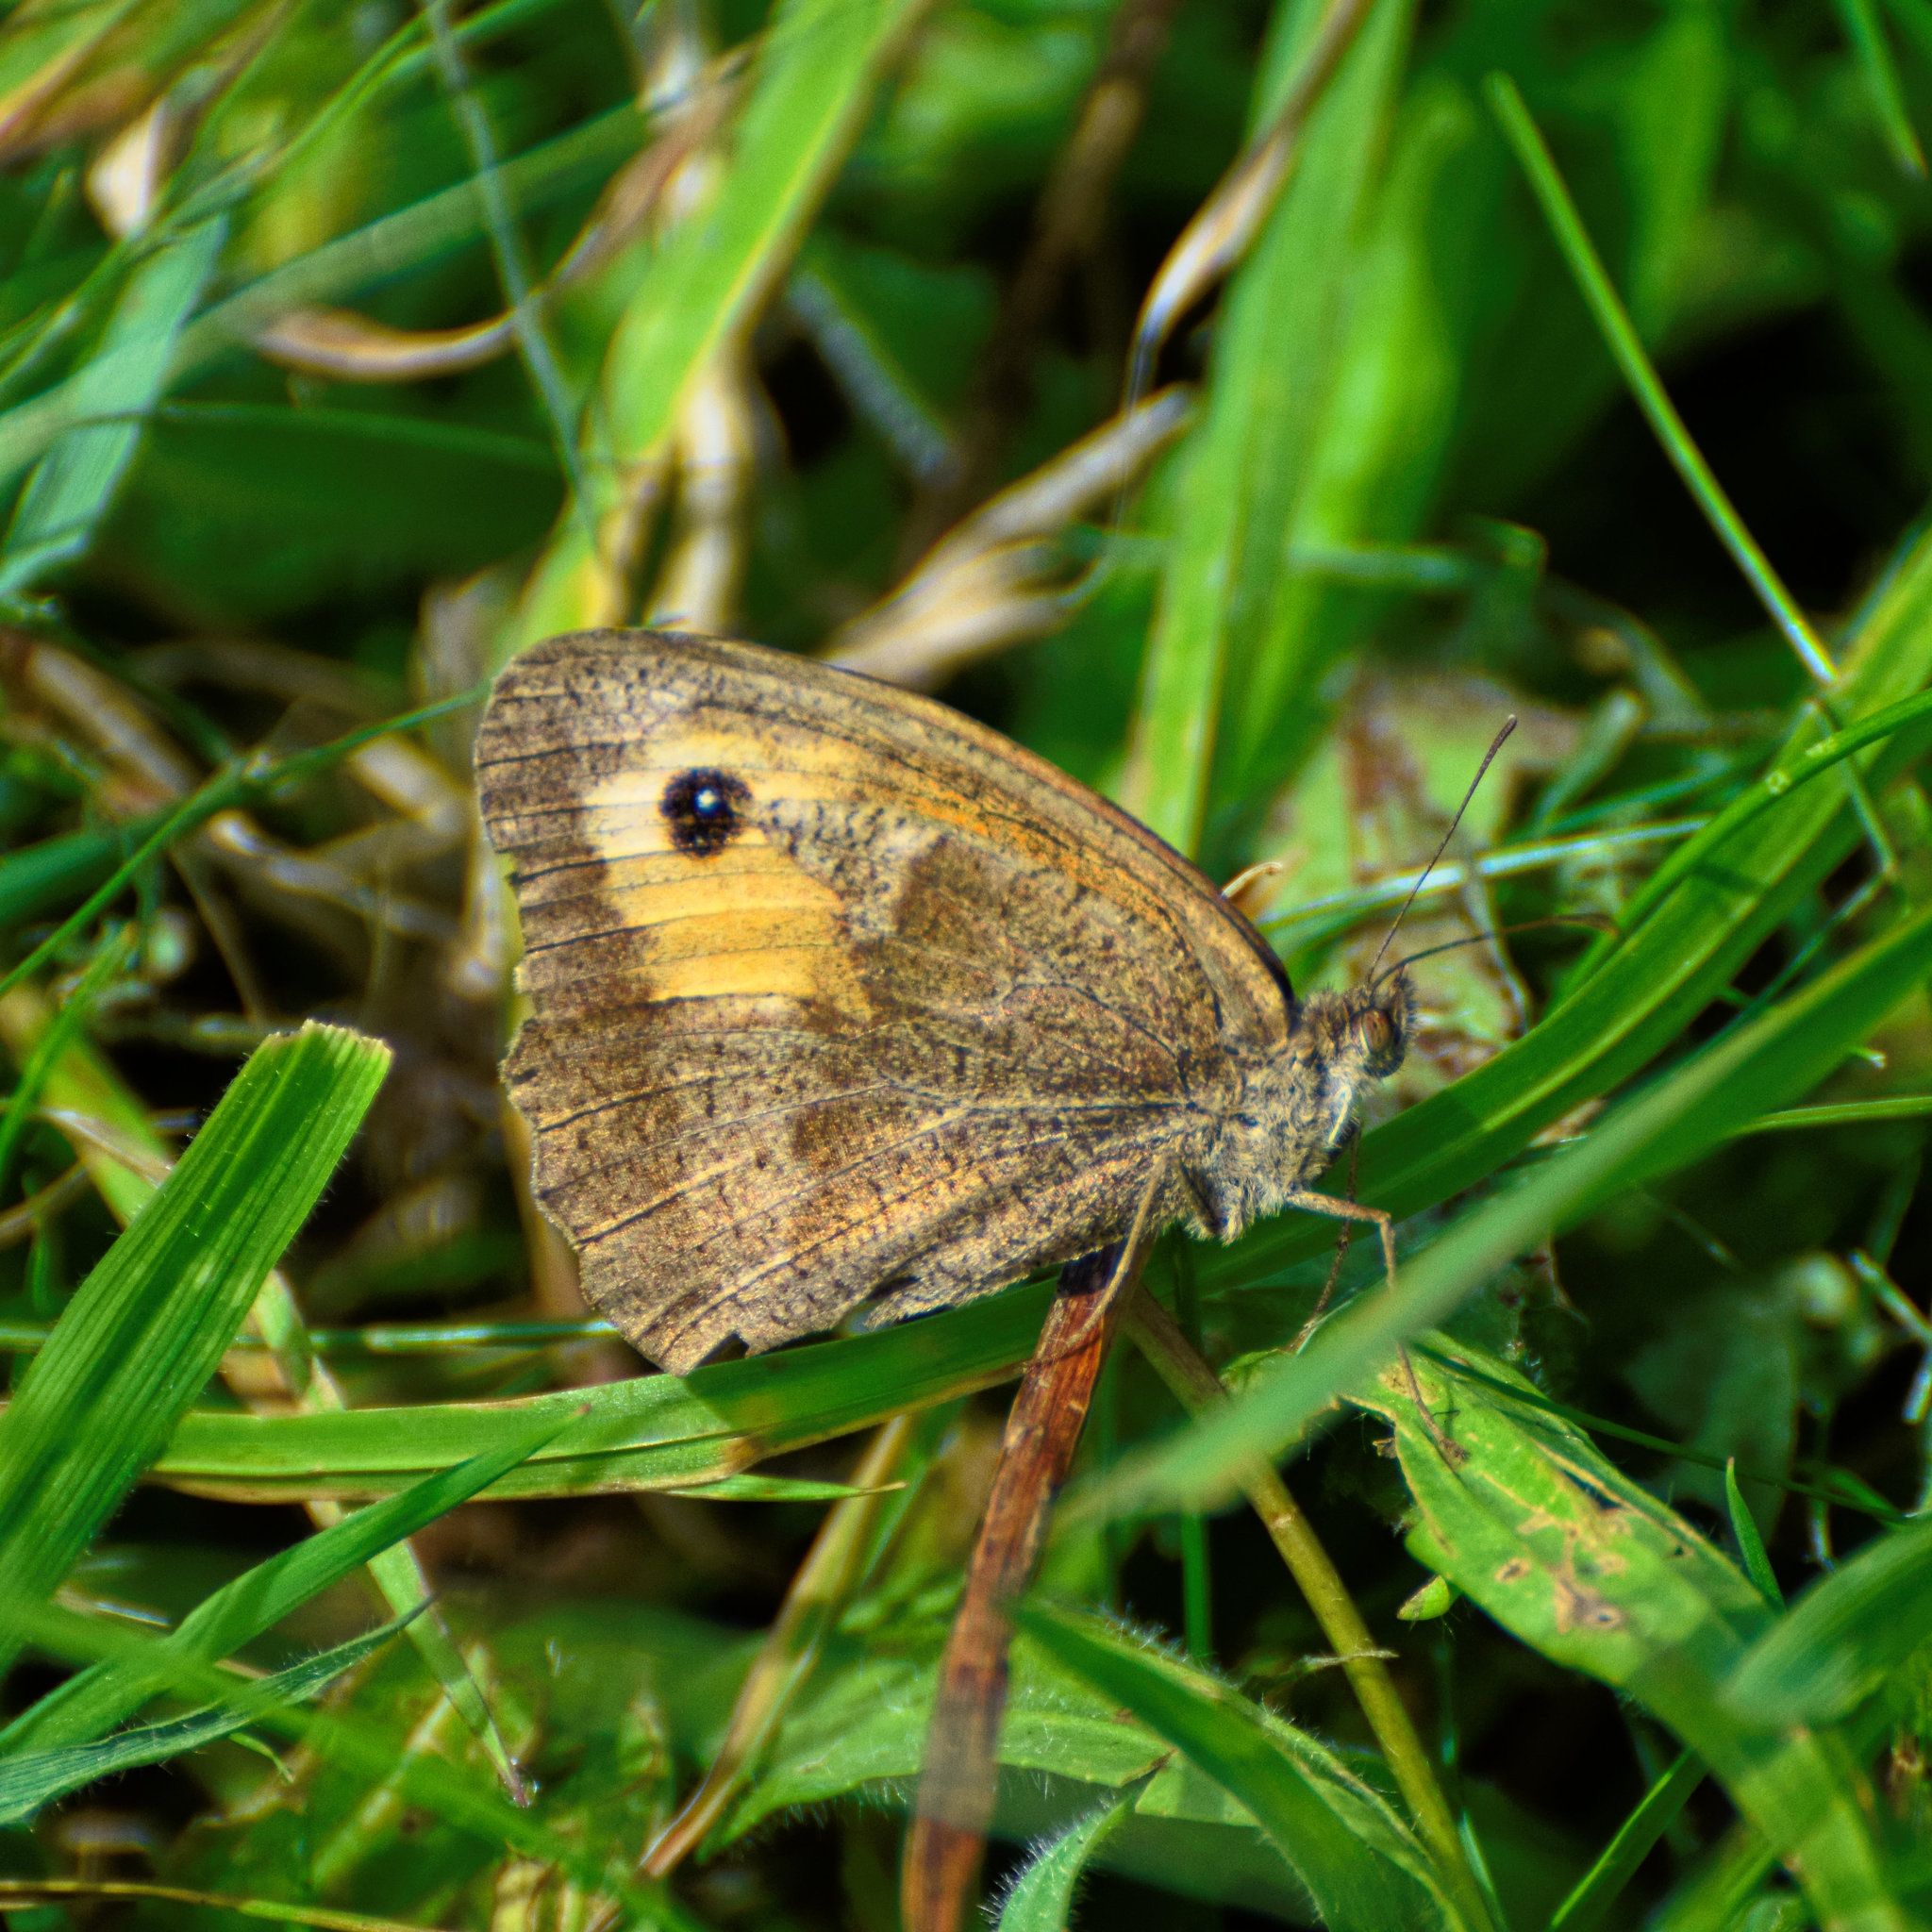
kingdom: Animalia
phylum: Arthropoda
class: Insecta
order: Lepidoptera
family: Nymphalidae
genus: Maniola
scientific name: Maniola jurtina
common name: Meadow brown
